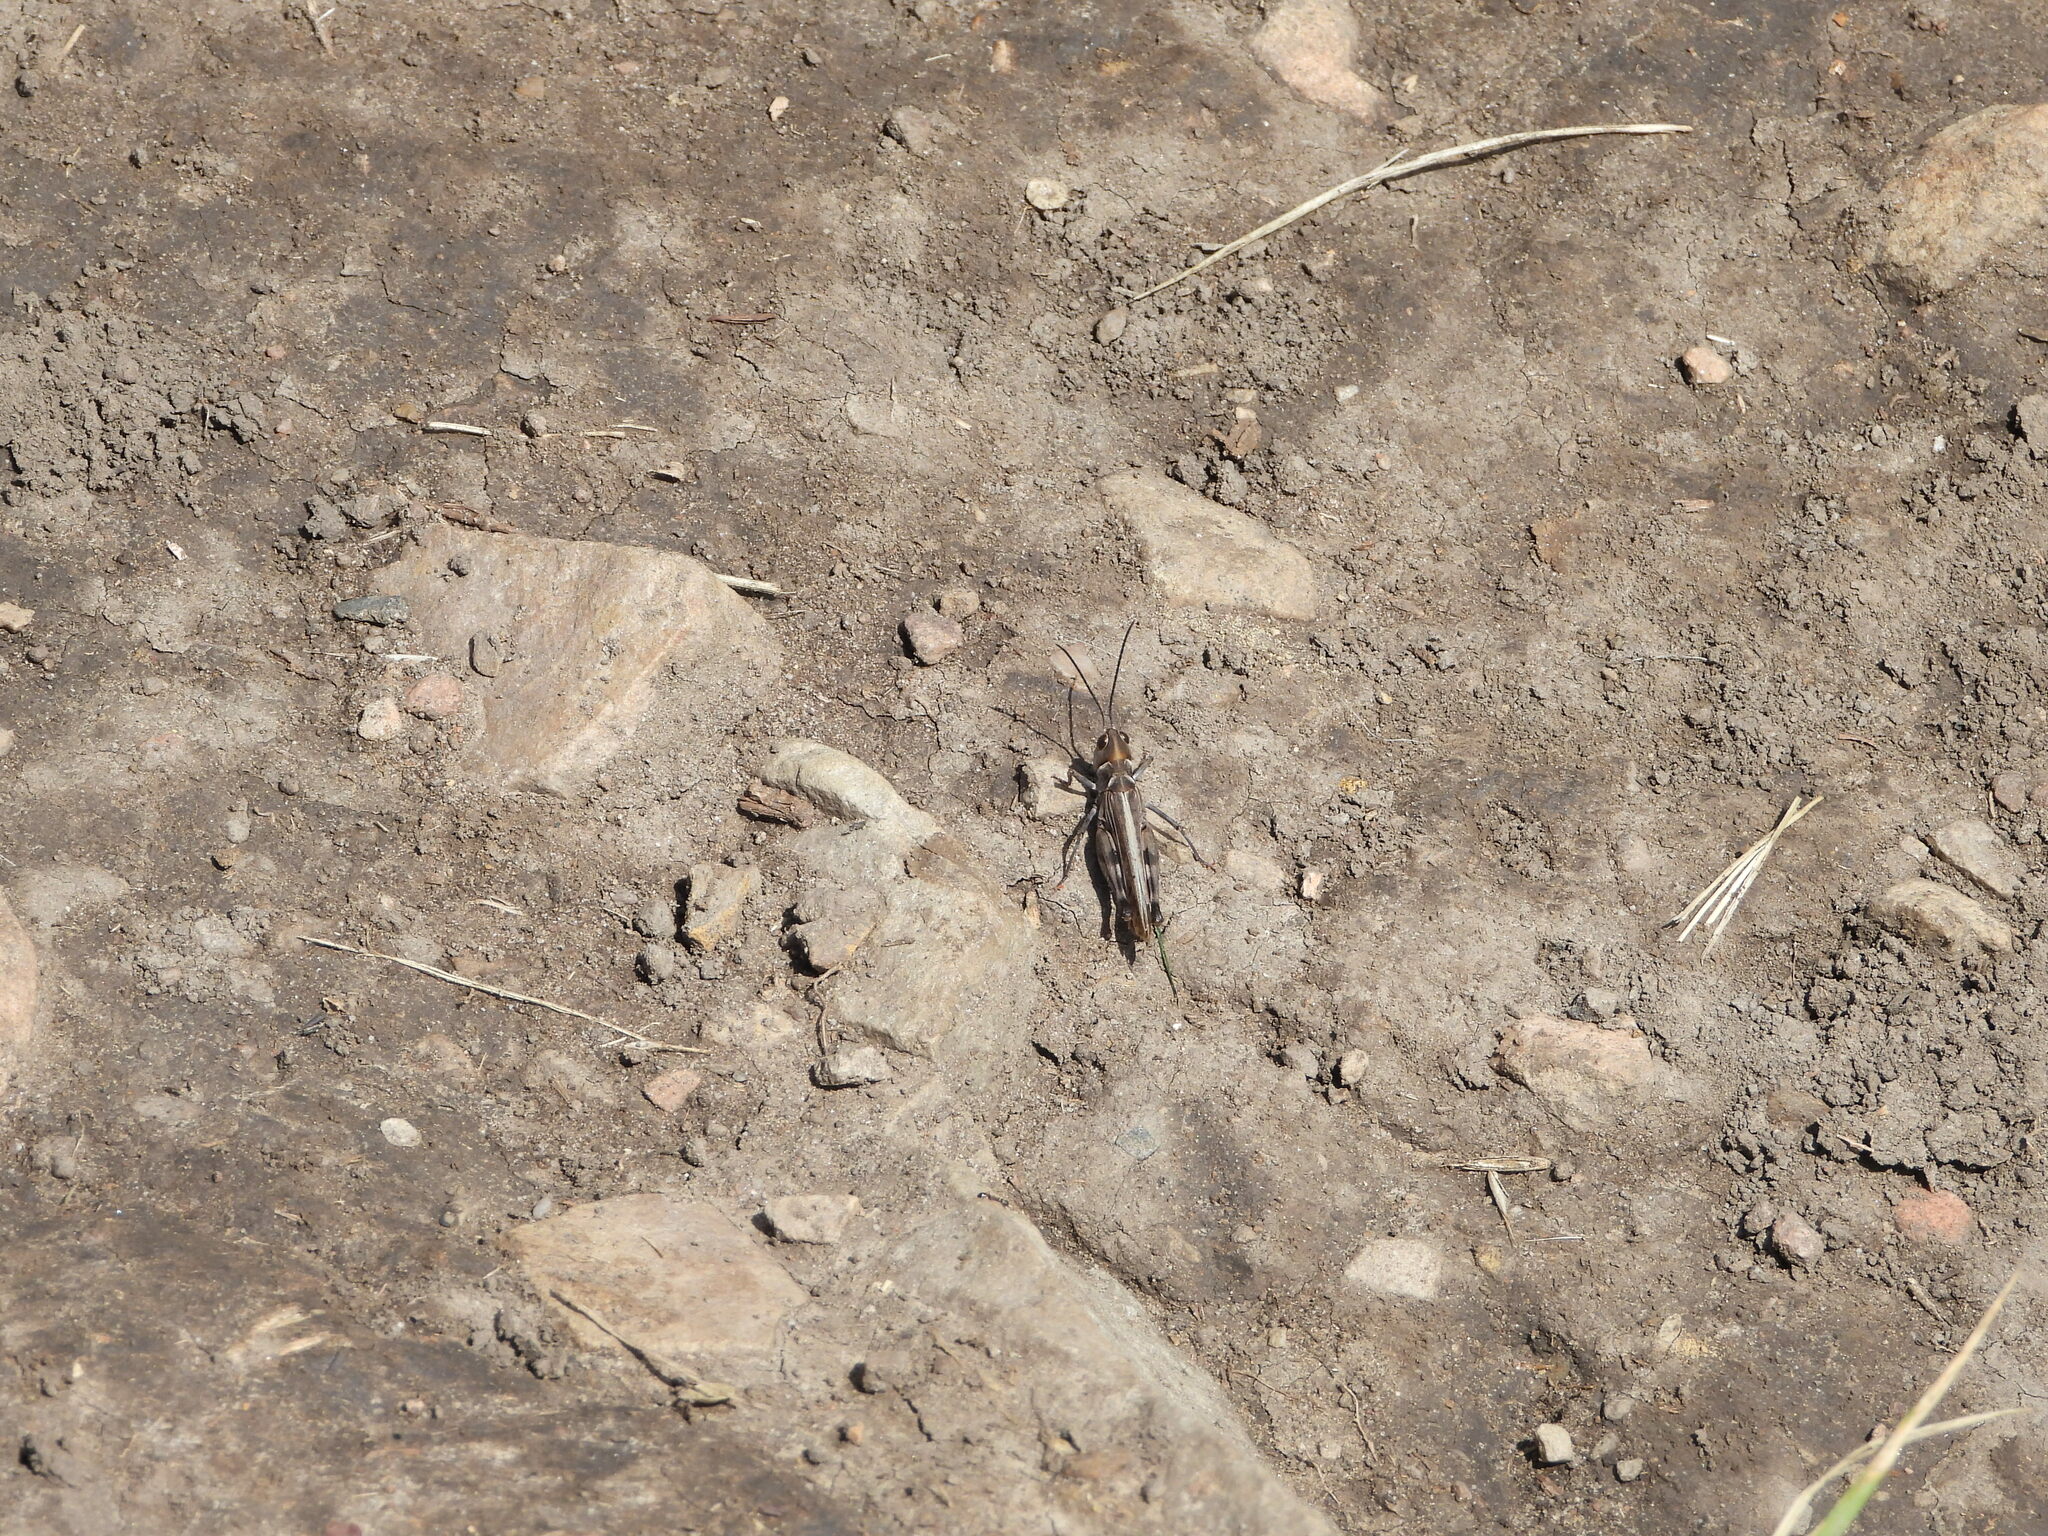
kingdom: Animalia
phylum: Arthropoda
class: Insecta
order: Orthoptera
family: Acrididae
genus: Aulocara
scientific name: Aulocara elliotti
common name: Bigheaded grasshopper
